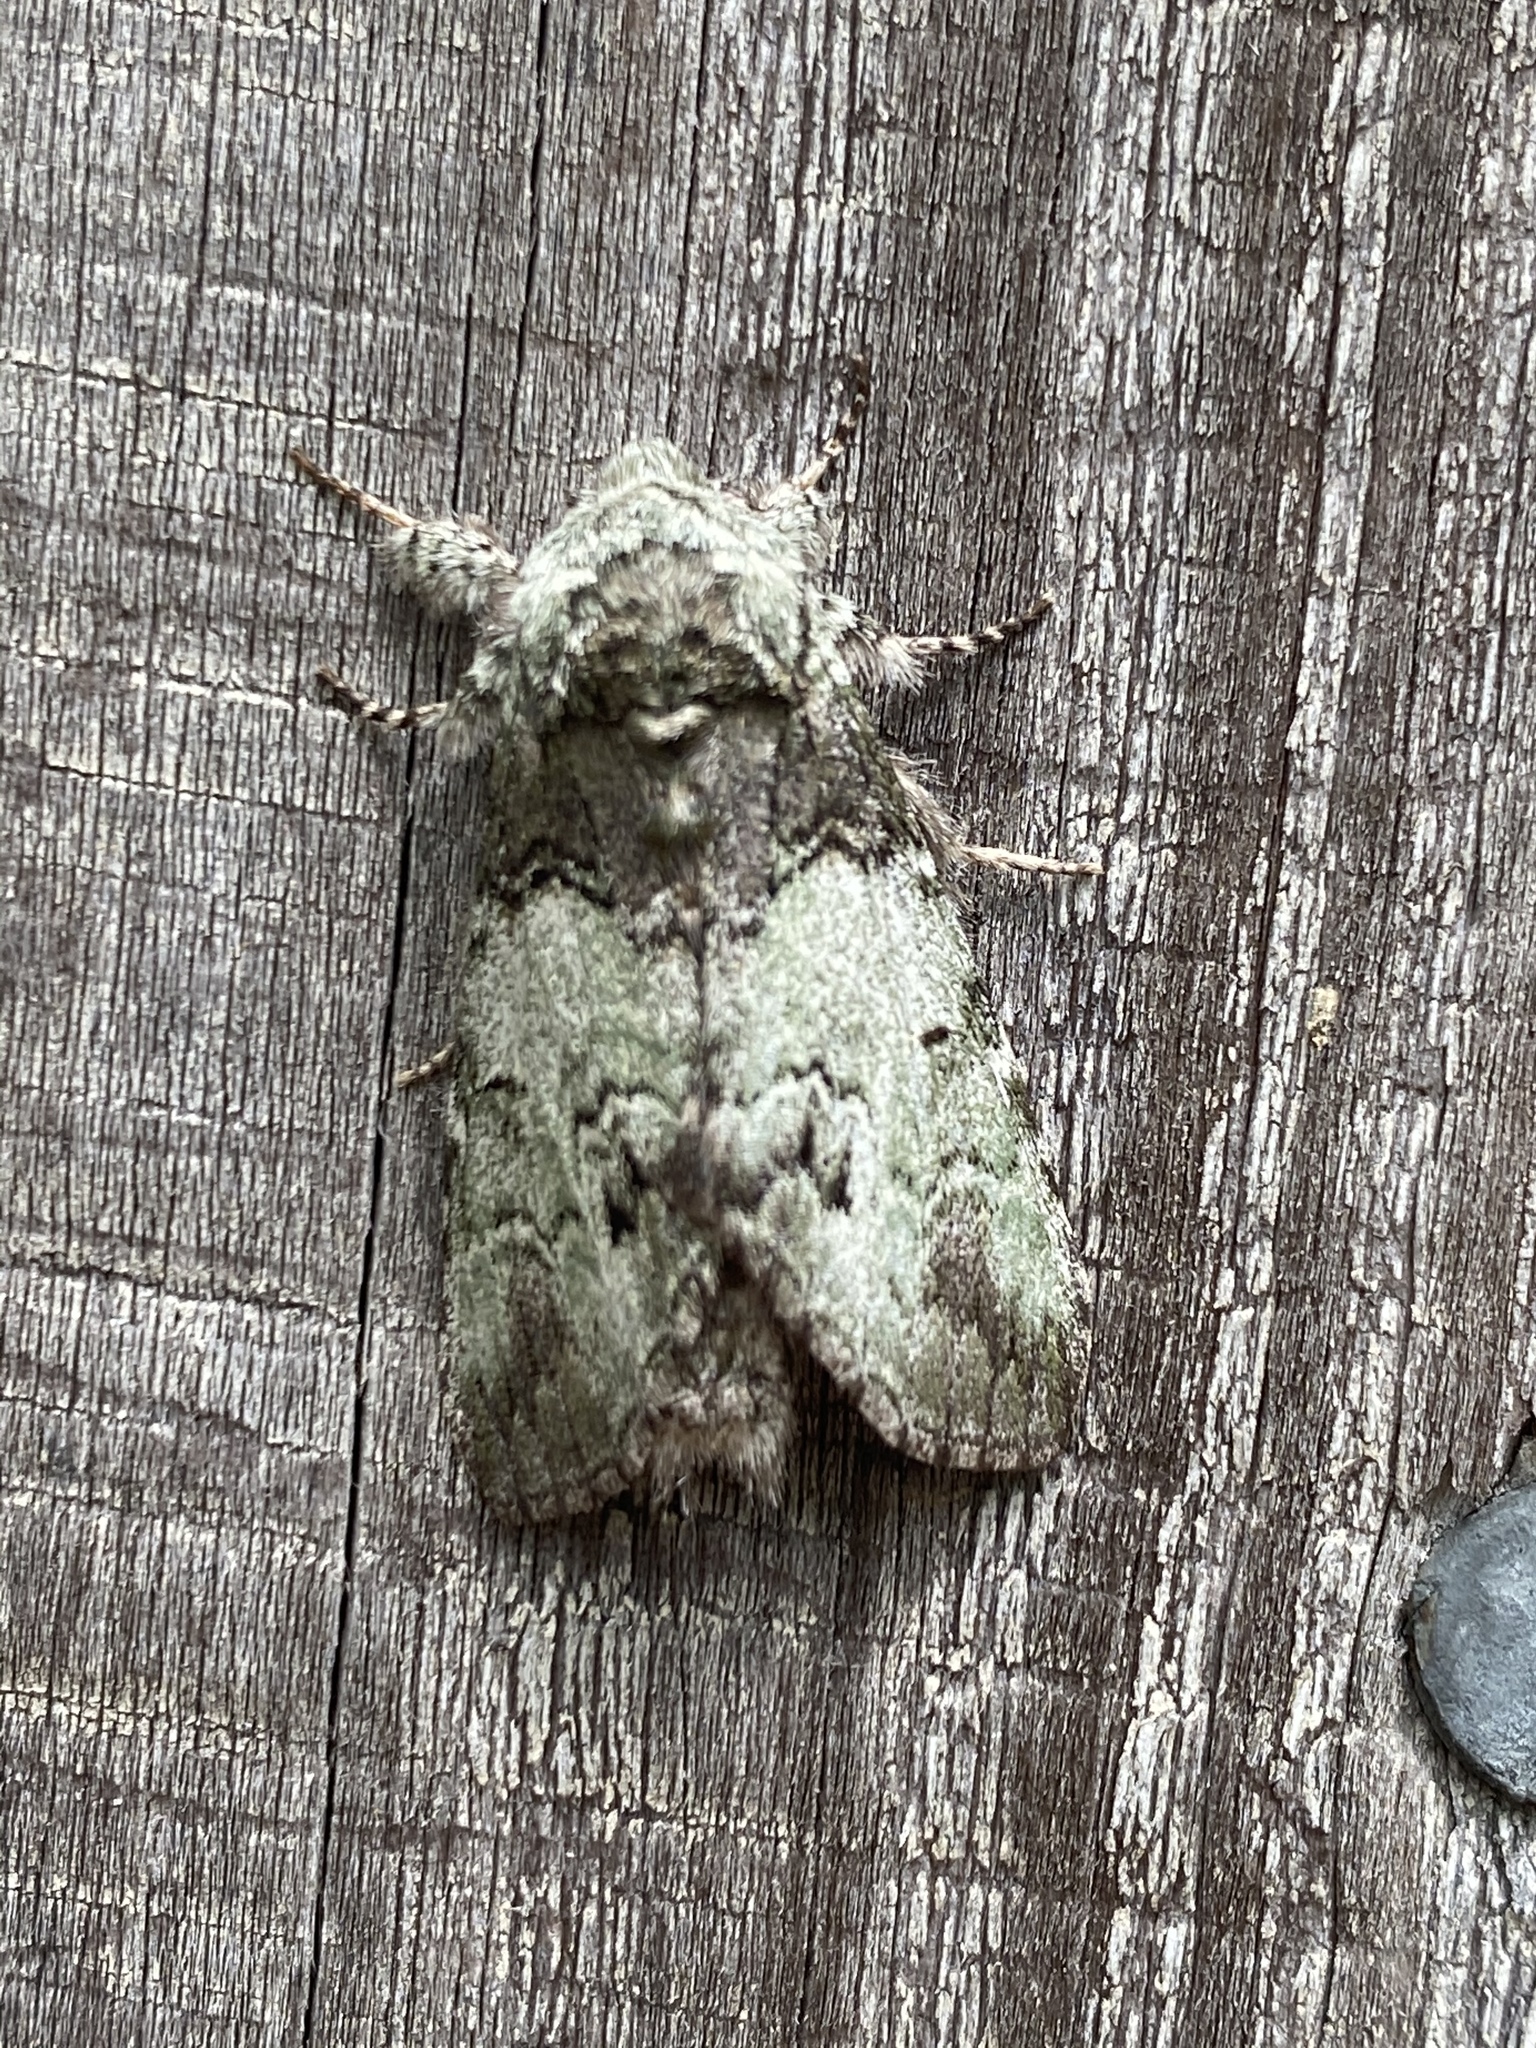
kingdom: Animalia
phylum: Arthropoda
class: Insecta
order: Lepidoptera
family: Notodontidae
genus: Macrurocampa
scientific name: Macrurocampa marthesia
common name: Mottled prominent
